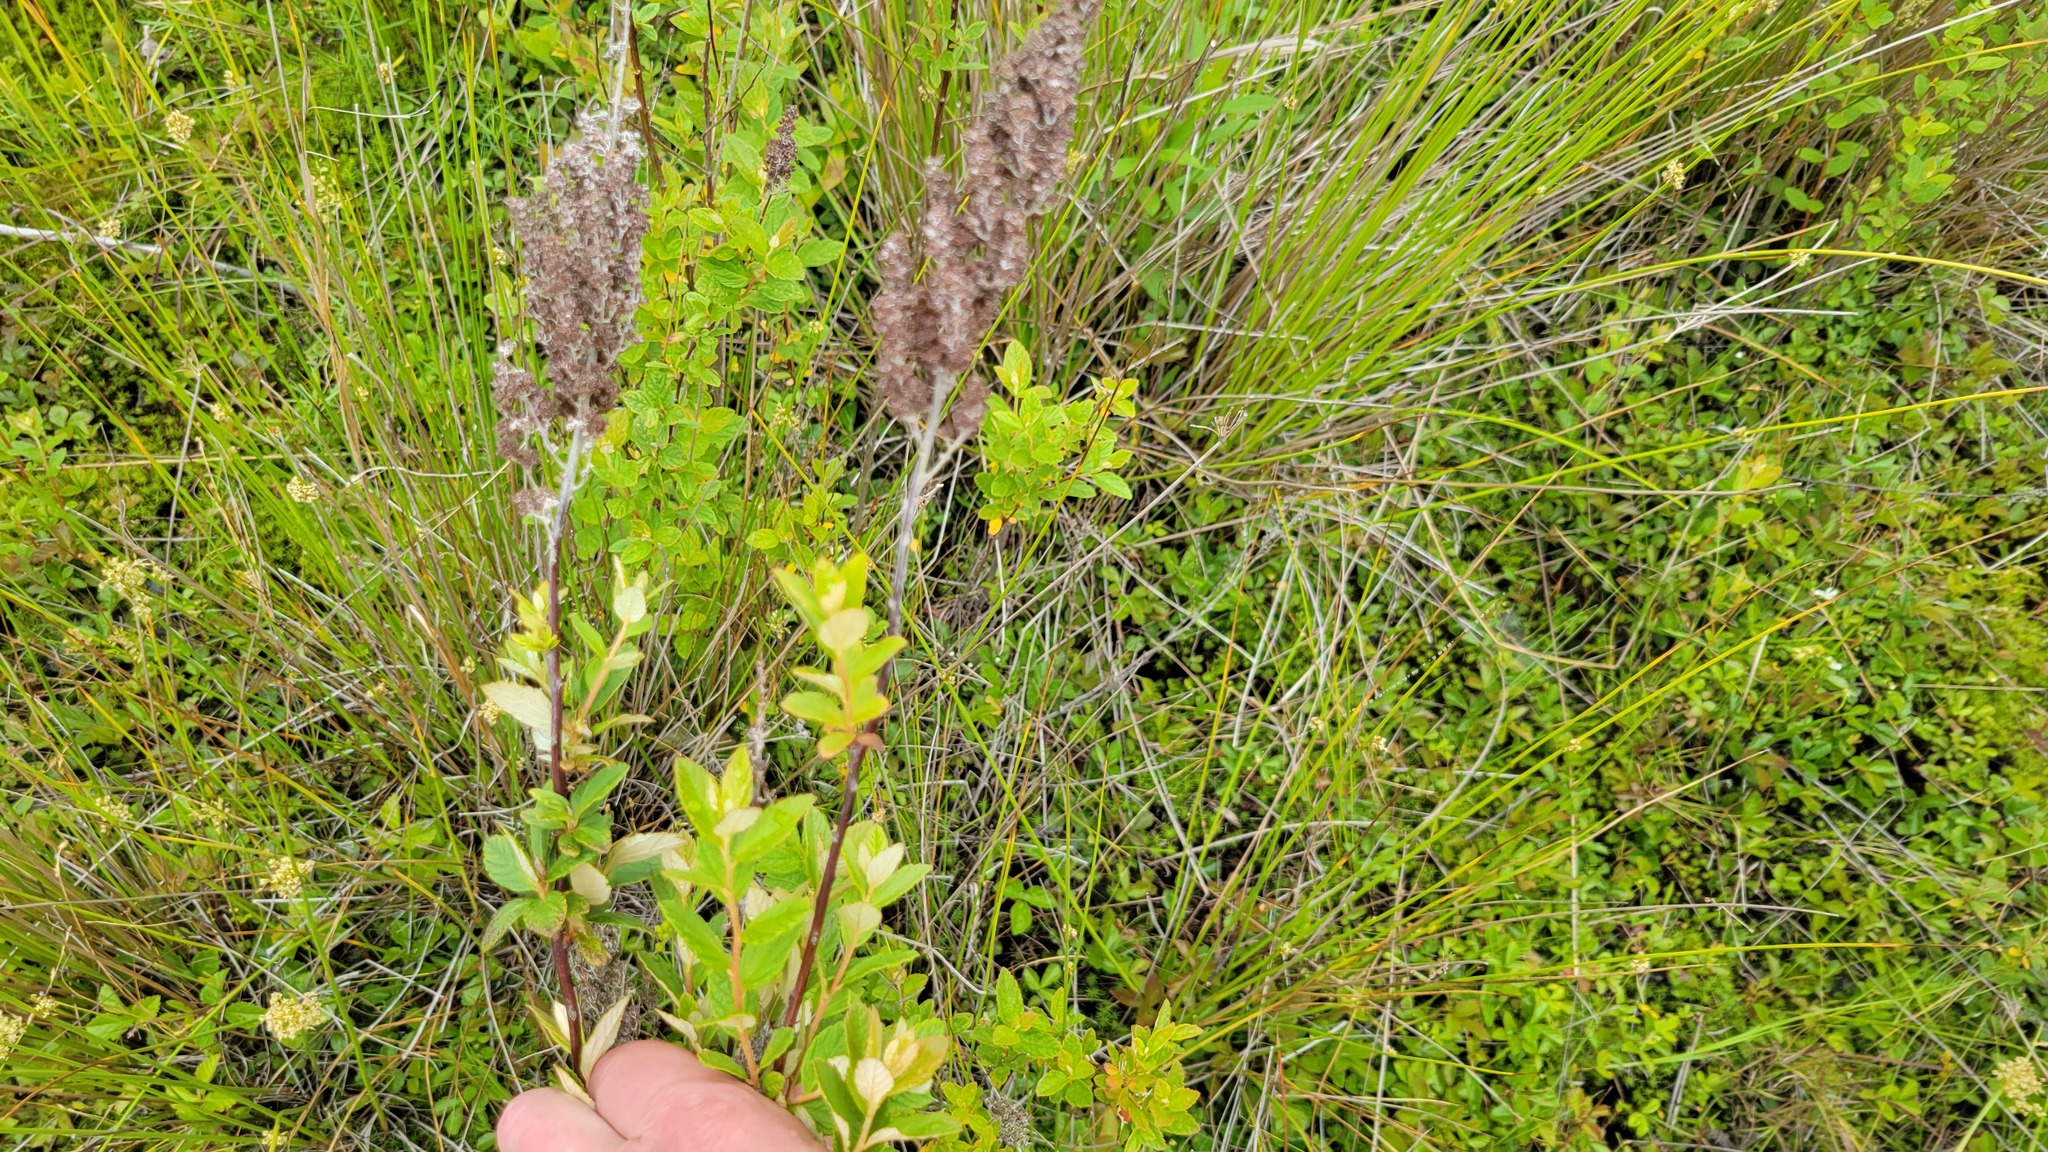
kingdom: Plantae
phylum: Tracheophyta
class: Magnoliopsida
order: Rosales
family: Rosaceae
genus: Spiraea
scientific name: Spiraea tomentosa
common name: Hardhack
